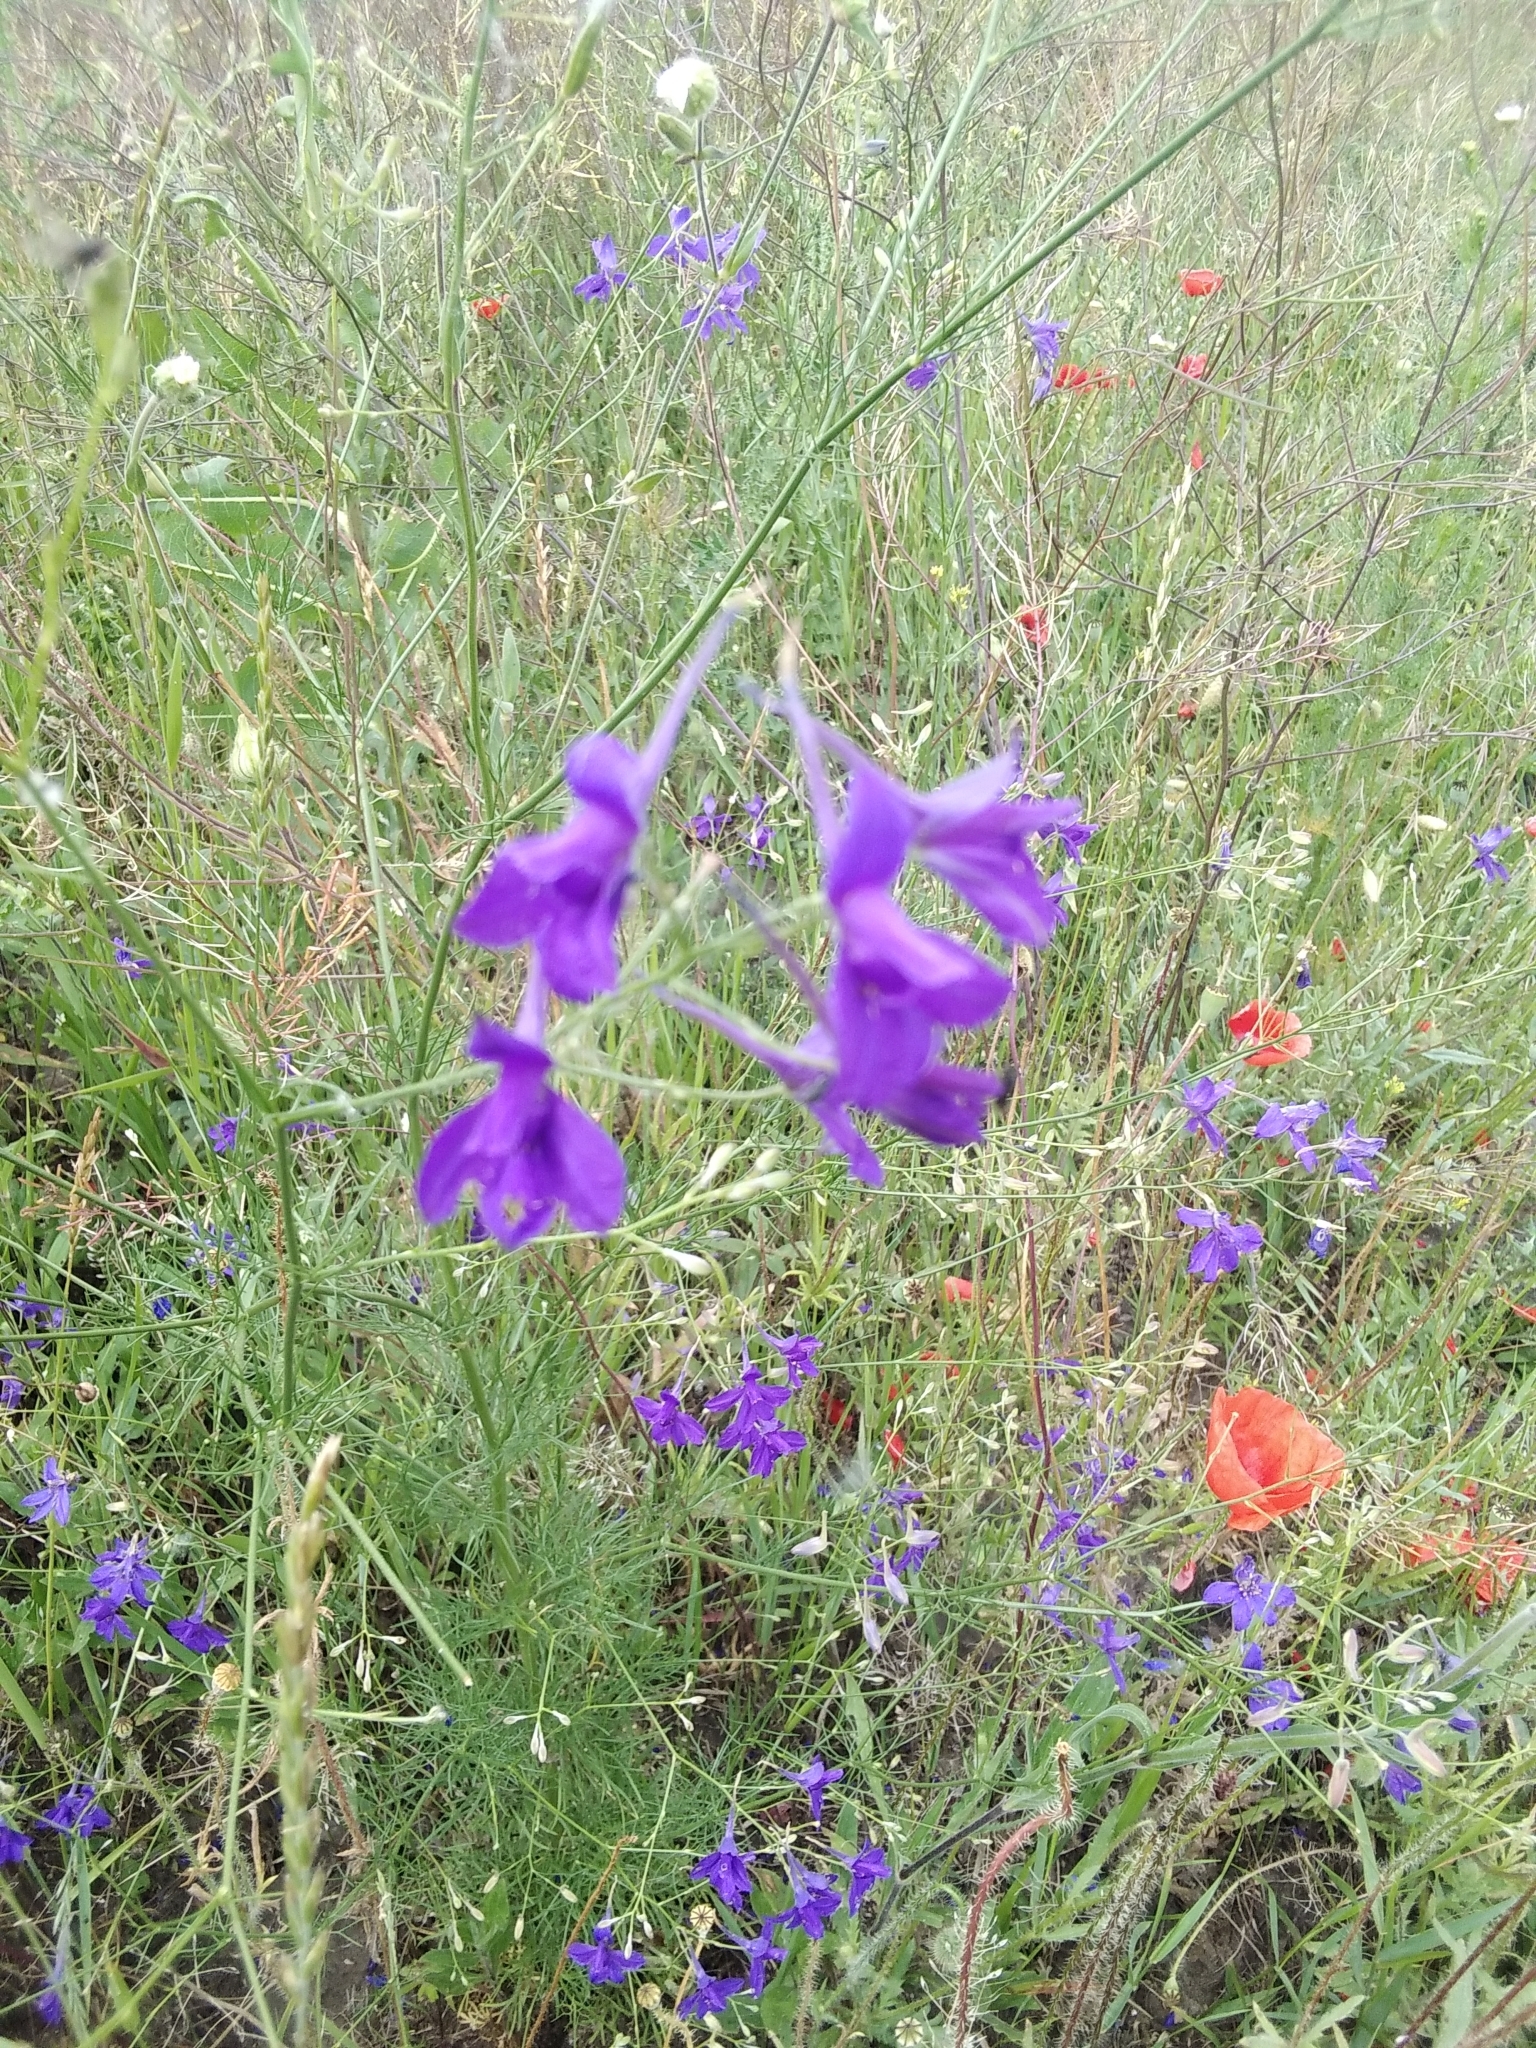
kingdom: Plantae
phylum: Tracheophyta
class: Magnoliopsida
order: Ranunculales
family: Ranunculaceae
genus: Delphinium
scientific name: Delphinium consolida
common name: Branching larkspur
